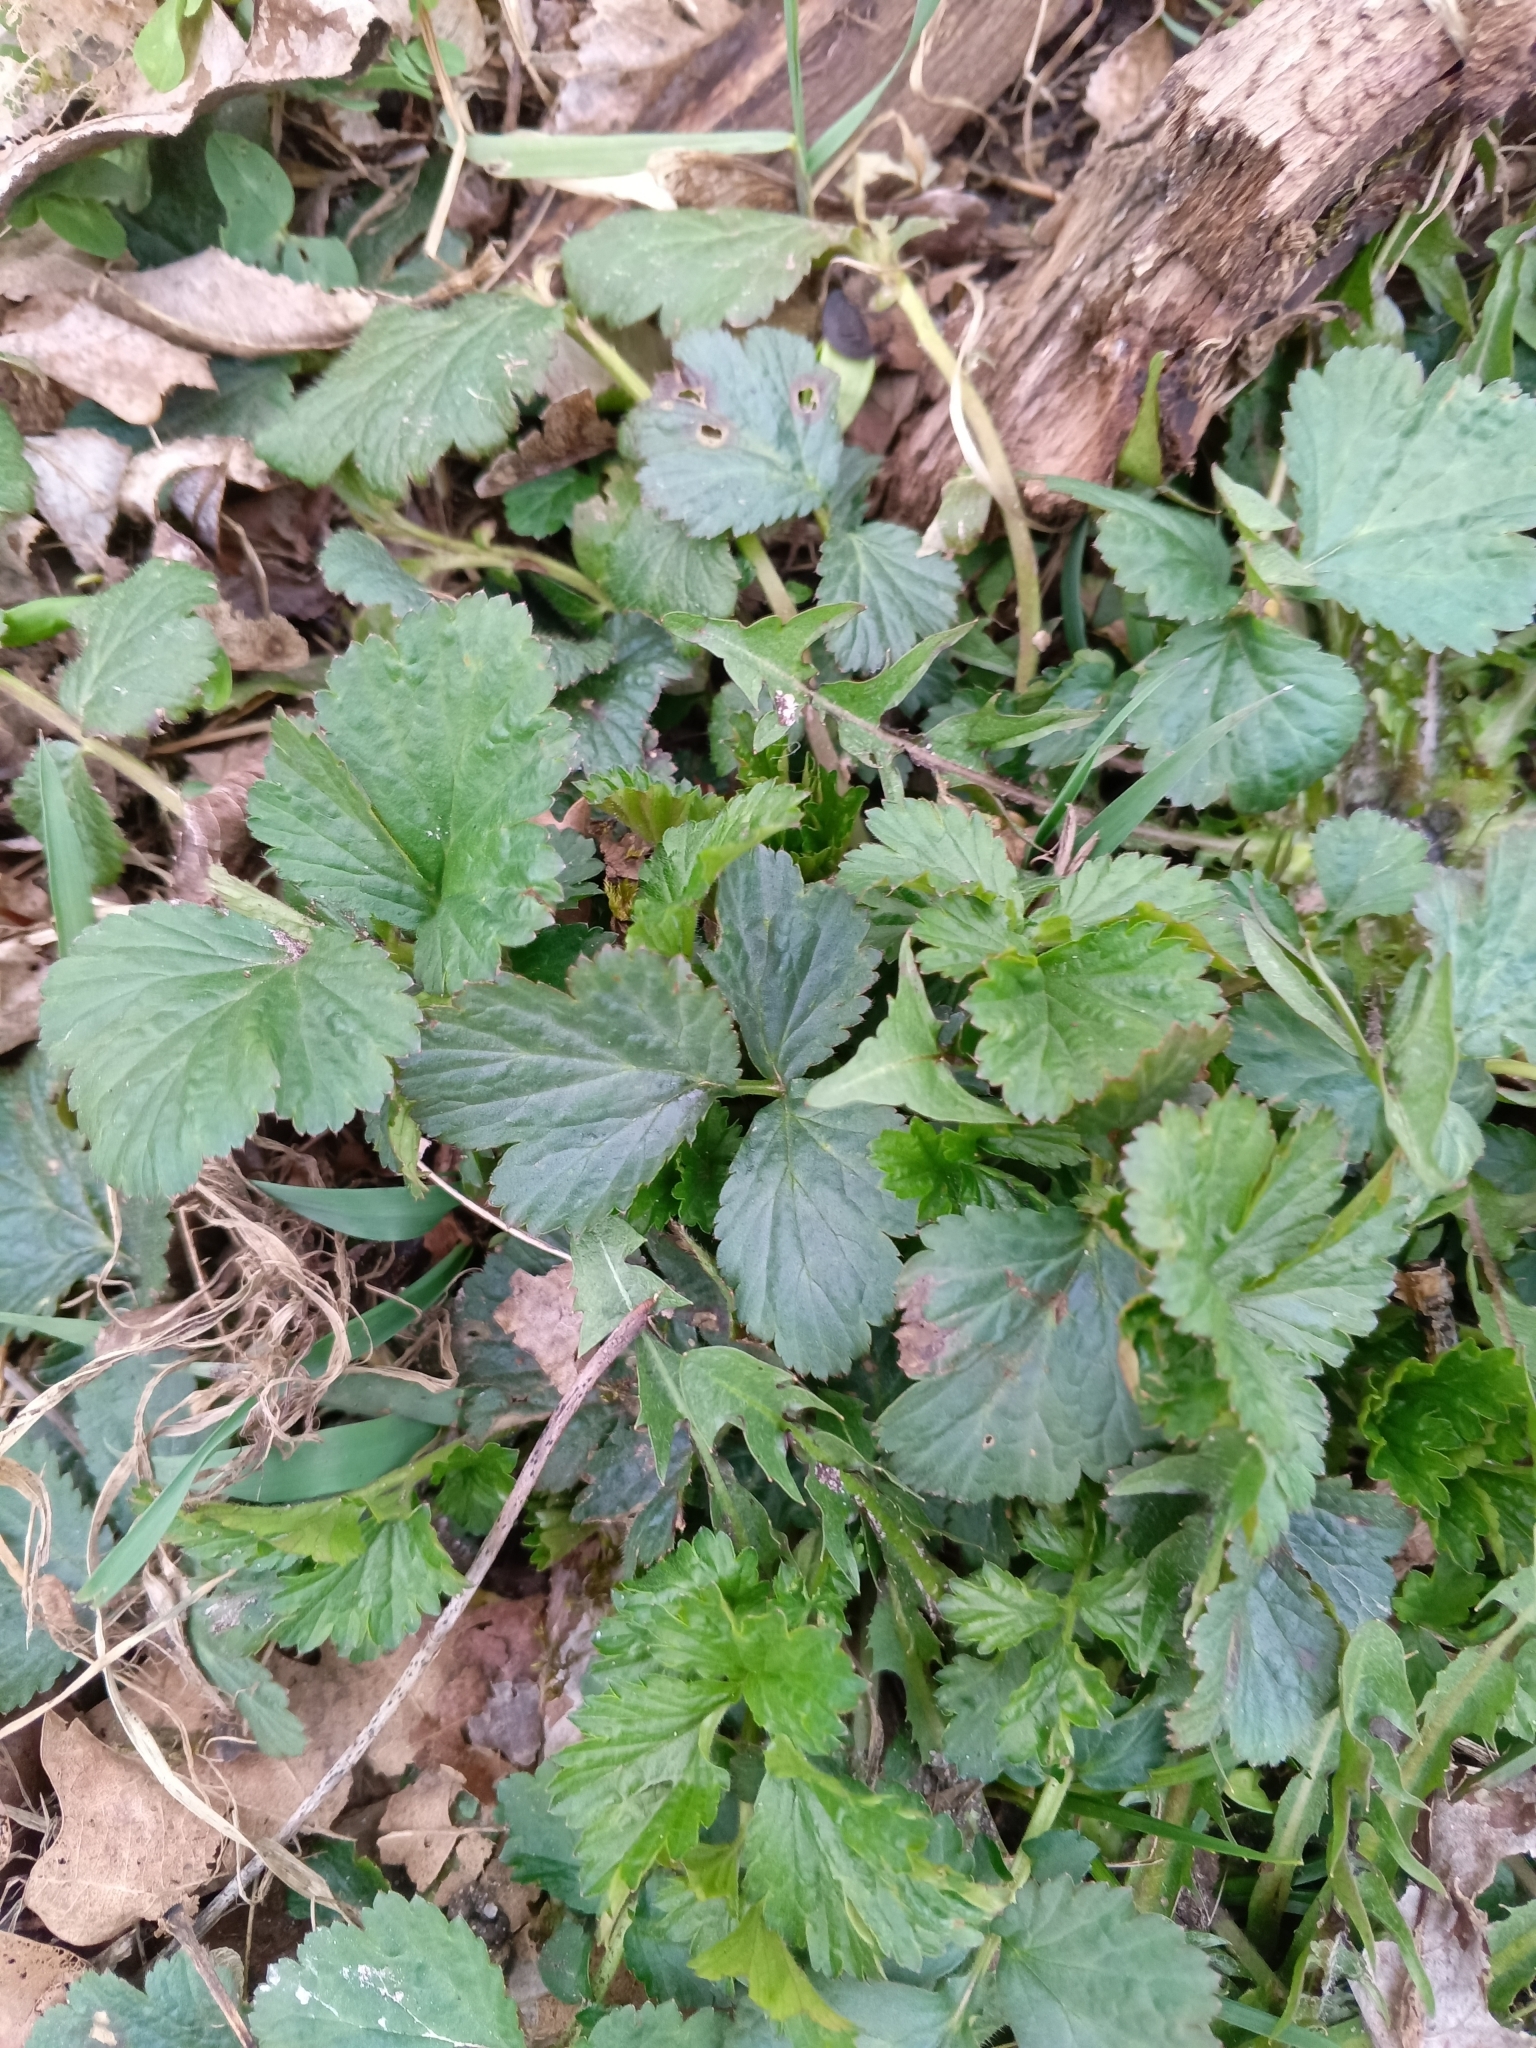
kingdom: Plantae
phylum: Tracheophyta
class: Magnoliopsida
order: Rosales
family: Rosaceae
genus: Geum
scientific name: Geum urbanum
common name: Wood avens
